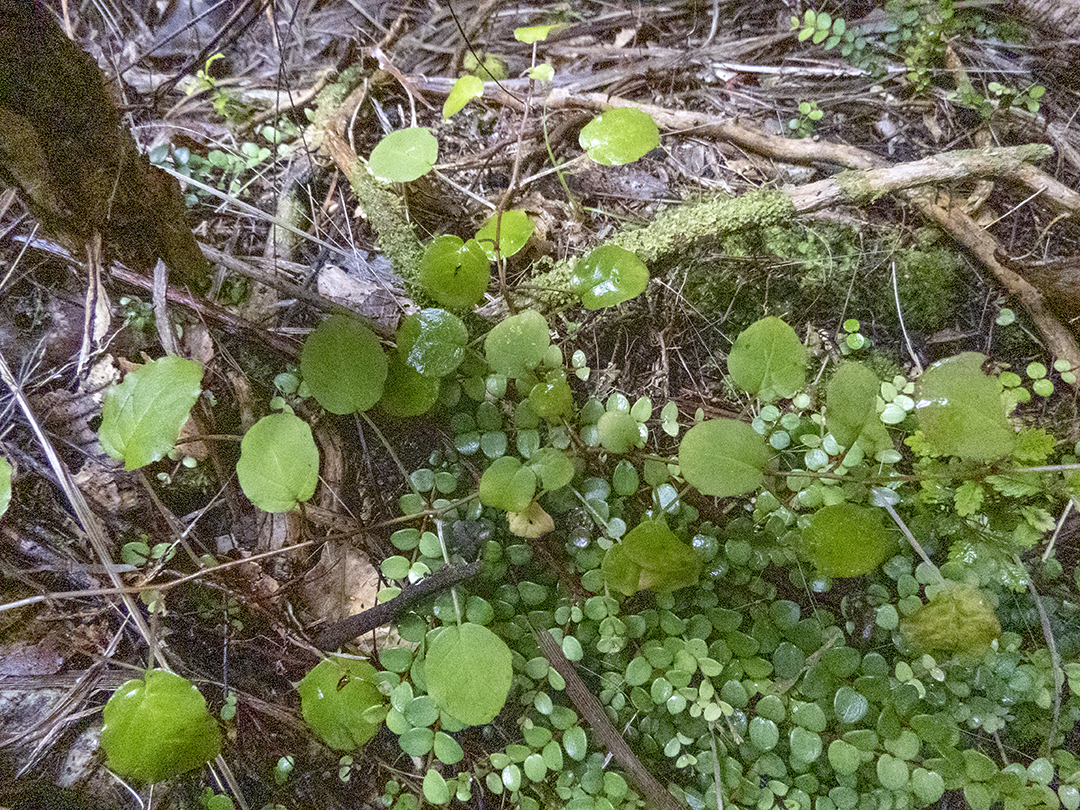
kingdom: Plantae
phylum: Tracheophyta
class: Magnoliopsida
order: Myrtales
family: Onagraceae
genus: Fuchsia
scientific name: Fuchsia perscandens
